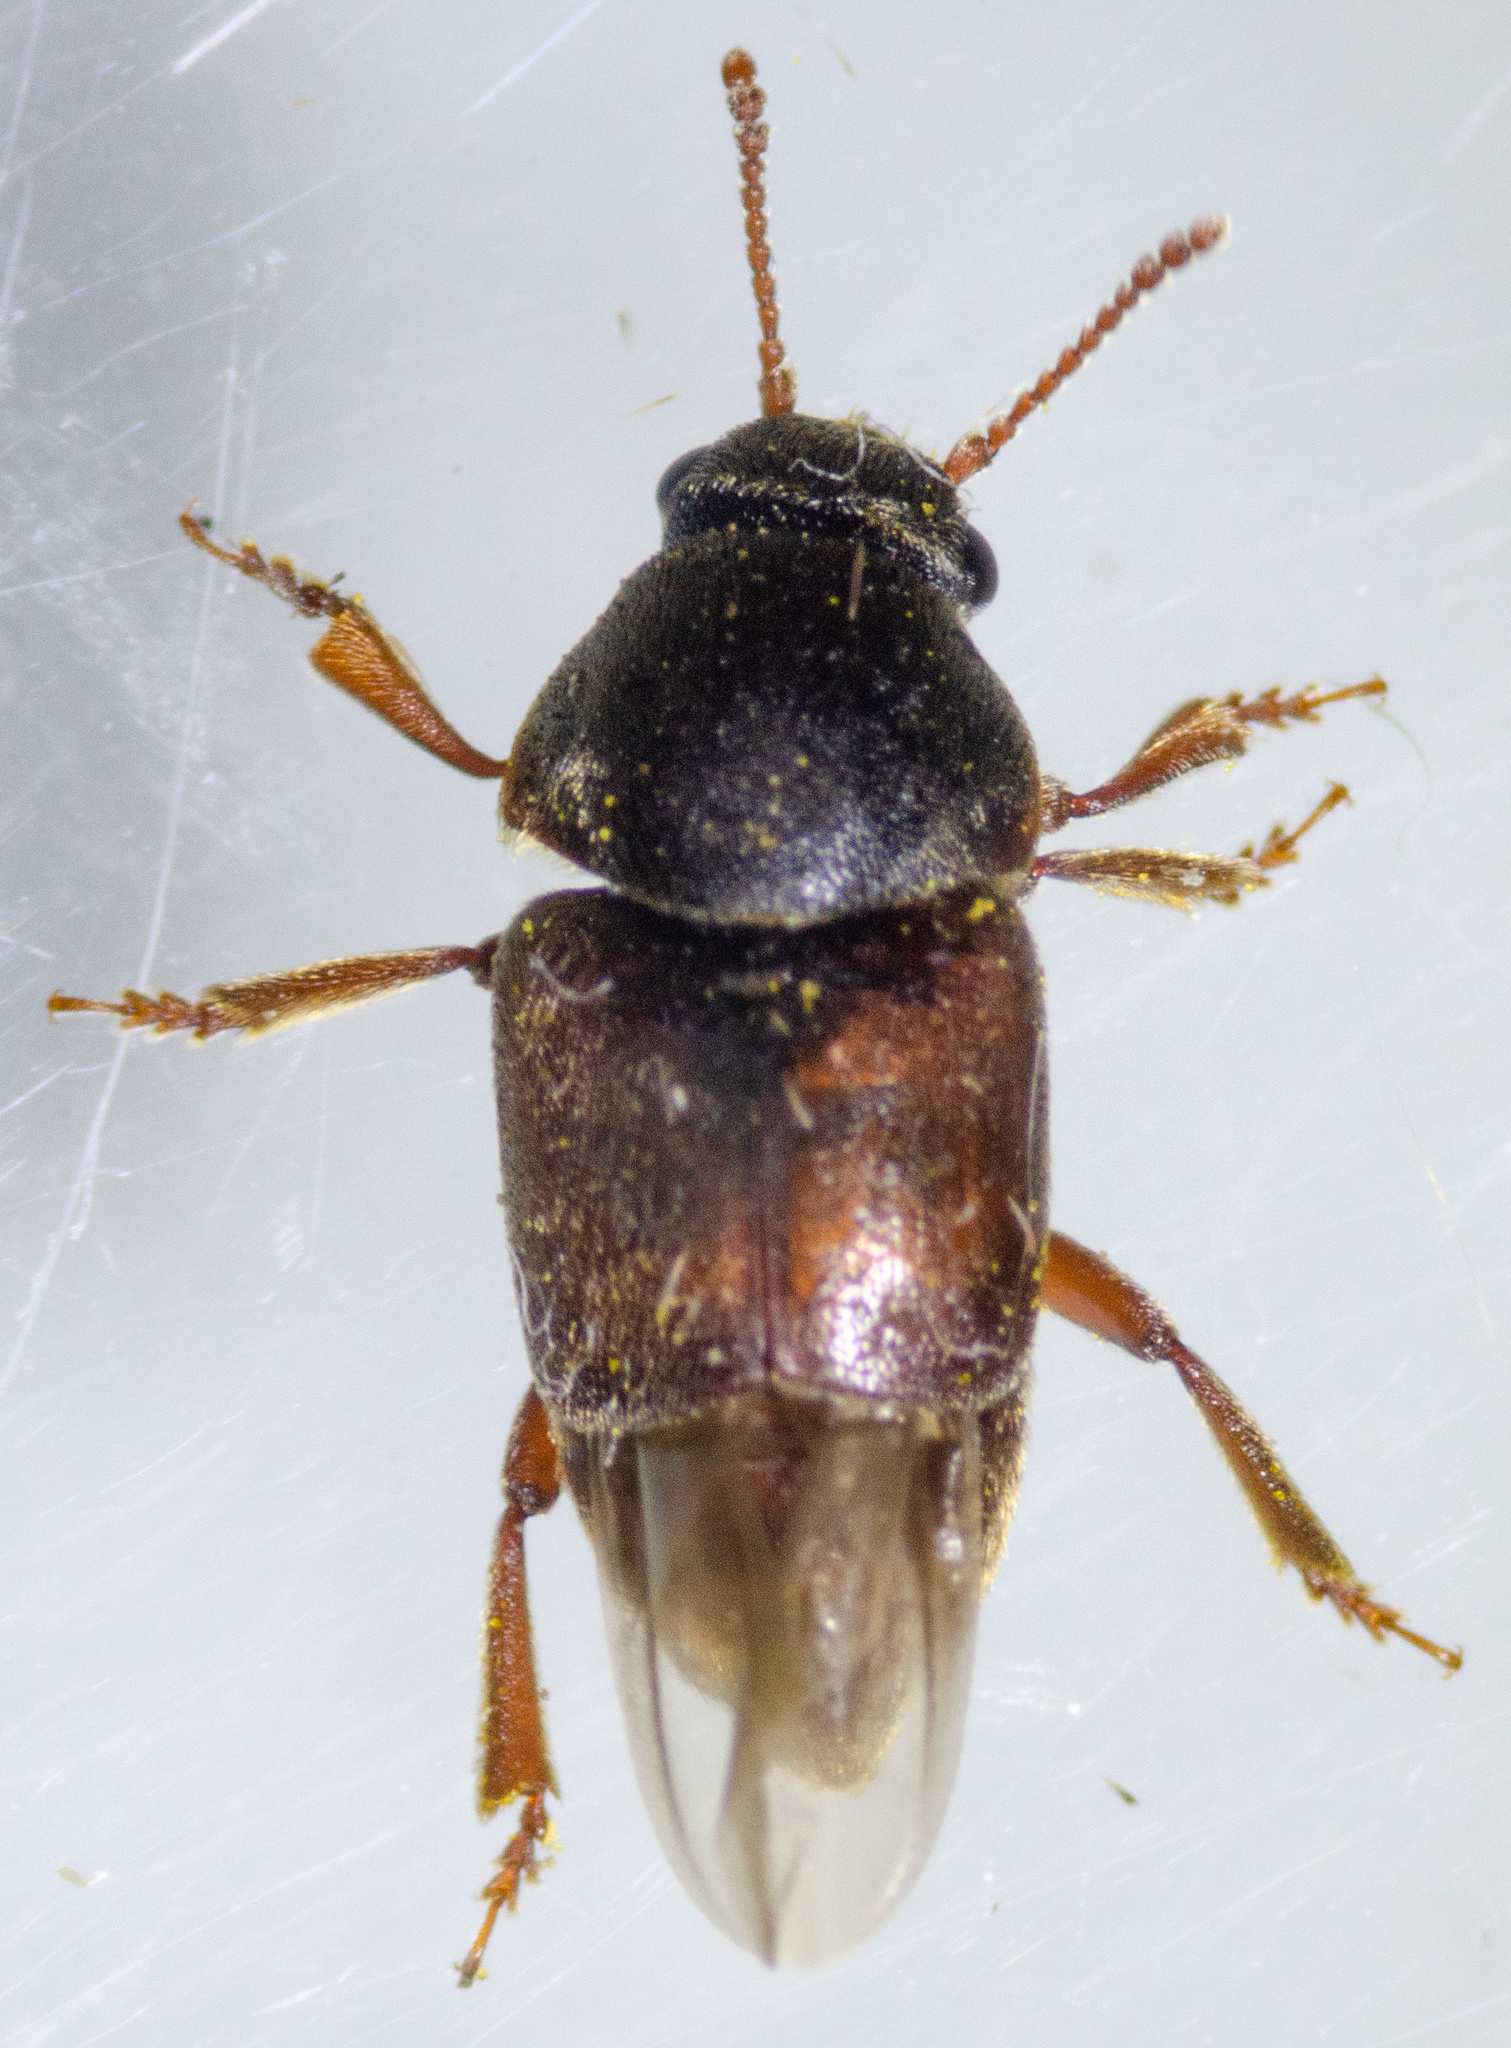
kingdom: Animalia
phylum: Arthropoda
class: Insecta
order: Coleoptera
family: Kateretidae
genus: Amartus
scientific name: Amartus tinctus
